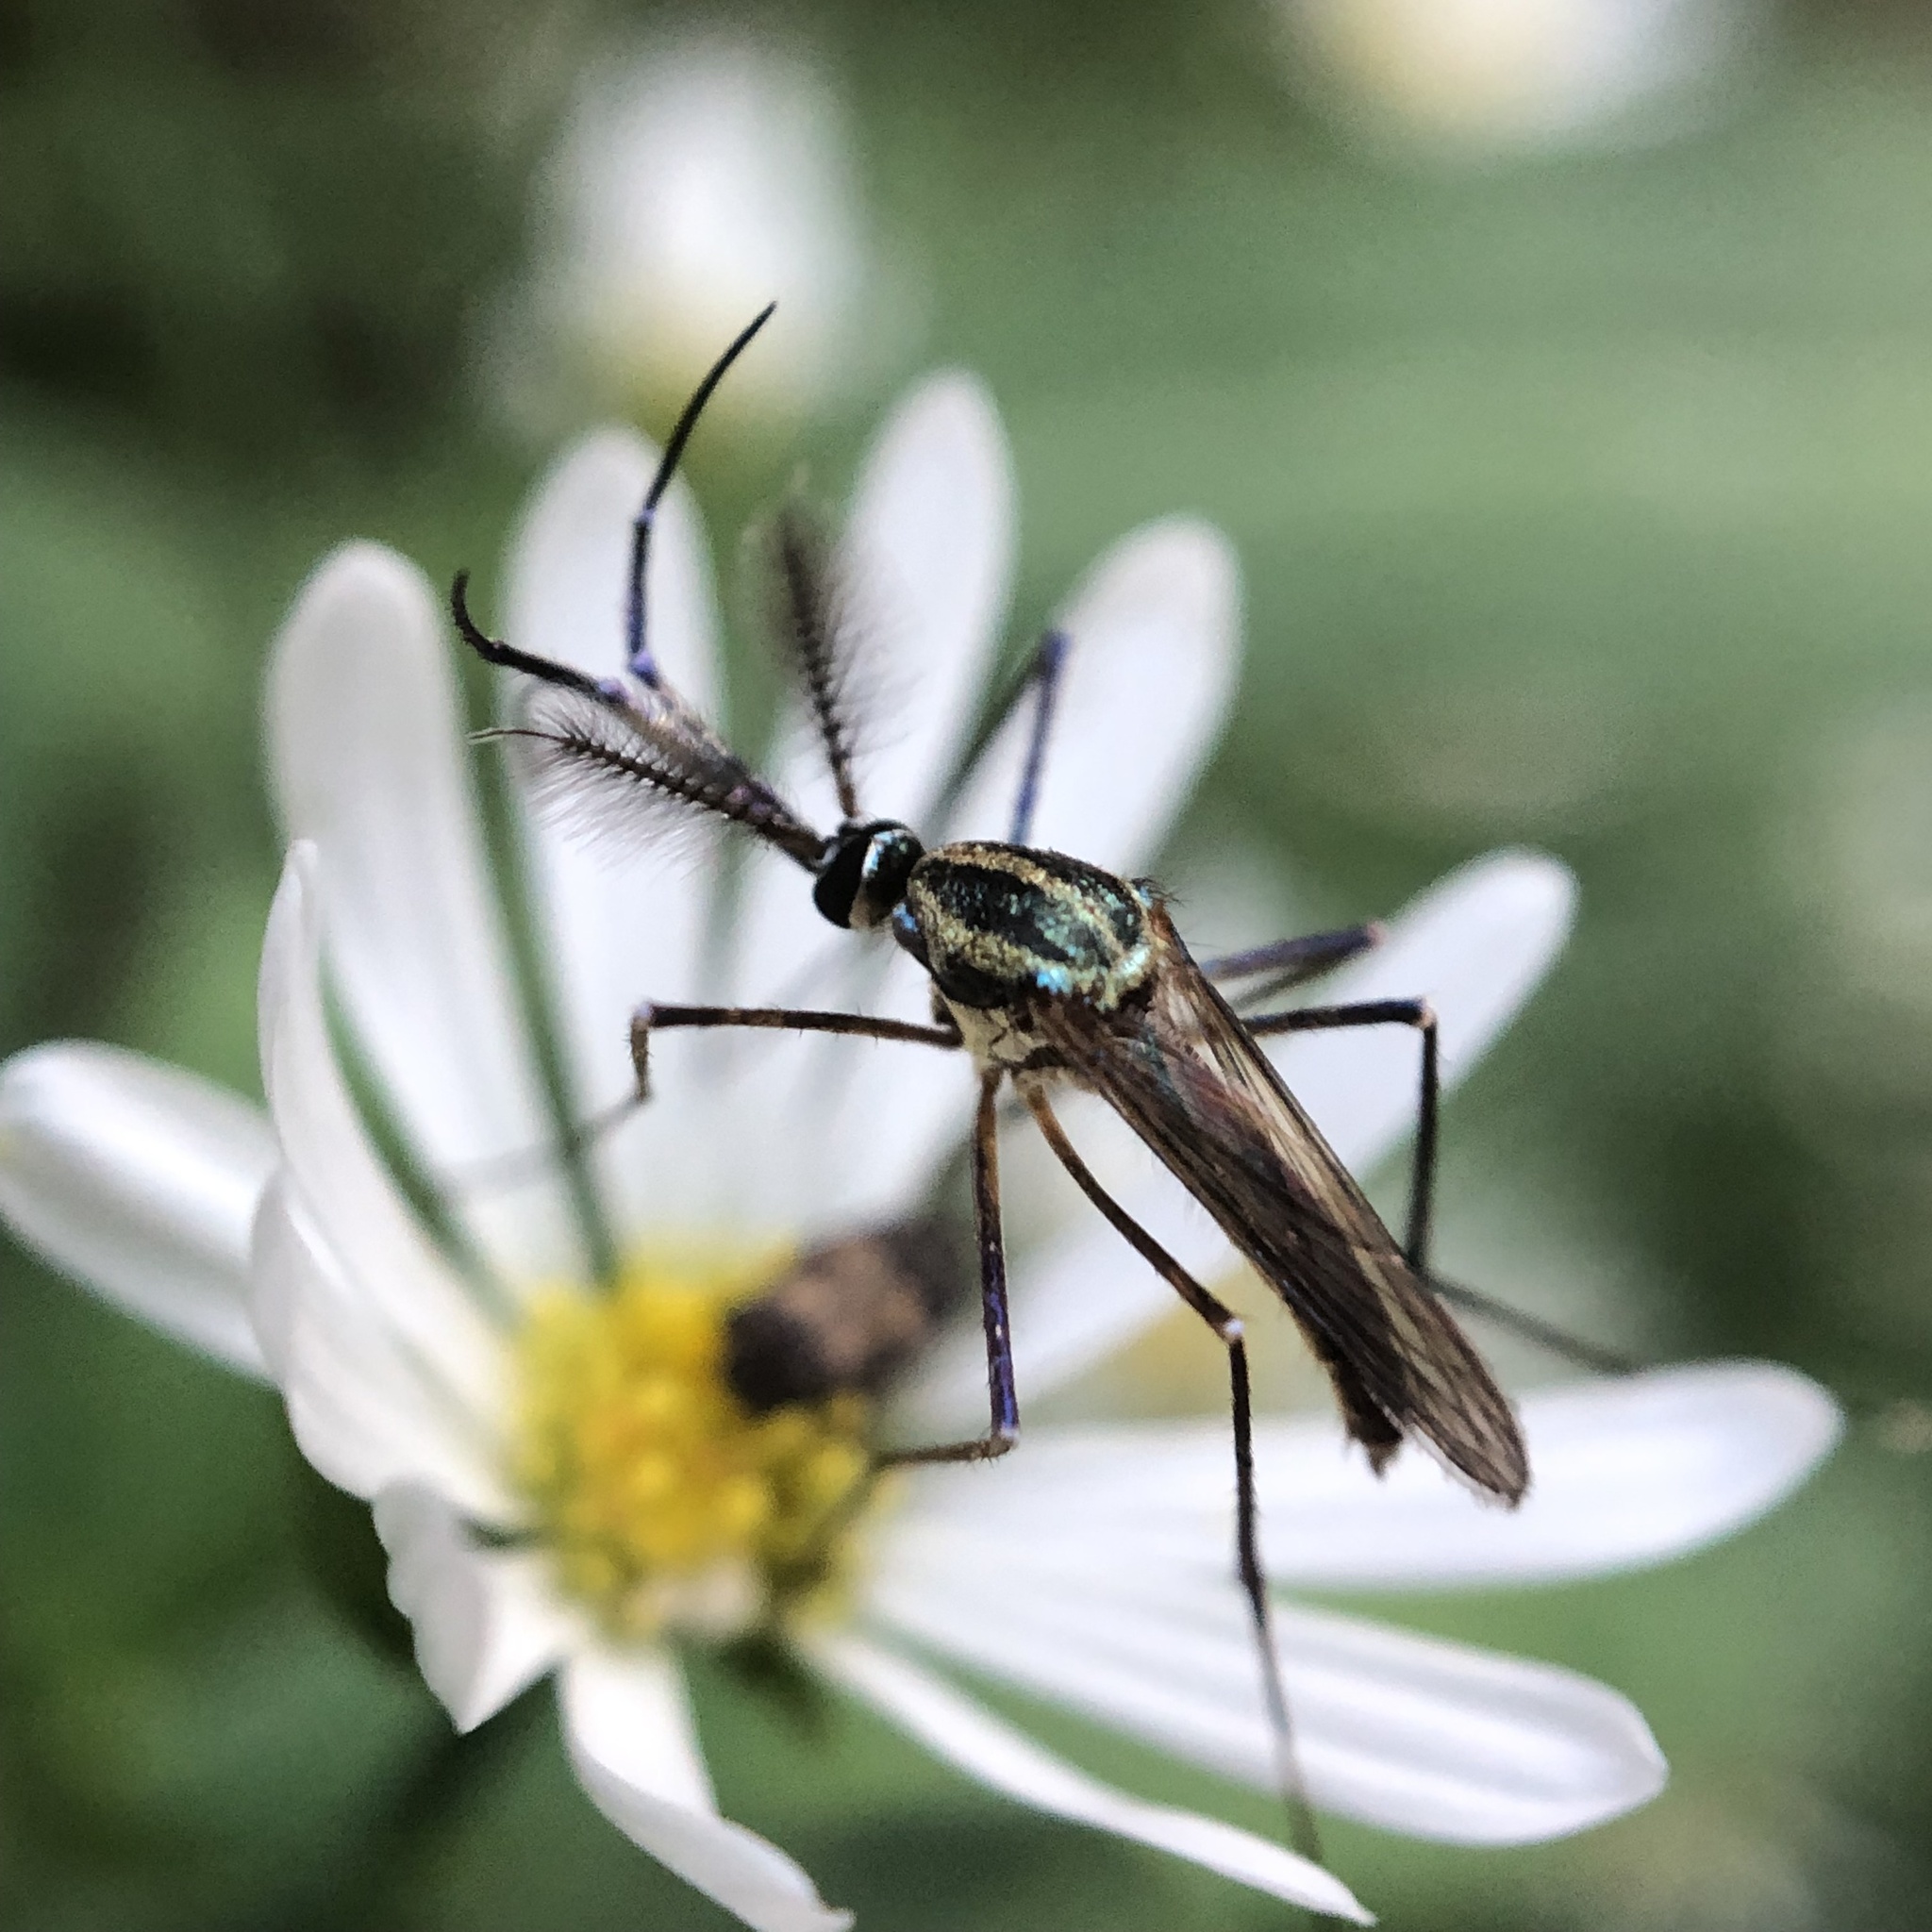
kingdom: Animalia
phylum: Arthropoda
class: Insecta
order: Diptera
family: Culicidae
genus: Toxorhynchites
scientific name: Toxorhynchites rutilus
